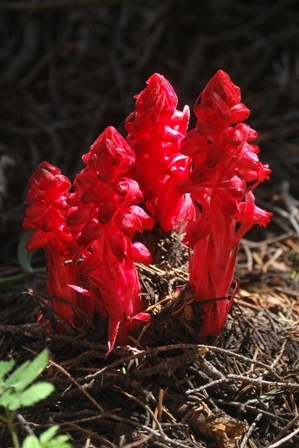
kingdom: Plantae
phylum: Tracheophyta
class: Magnoliopsida
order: Ericales
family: Ericaceae
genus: Sarcodes
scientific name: Sarcodes sanguinea
